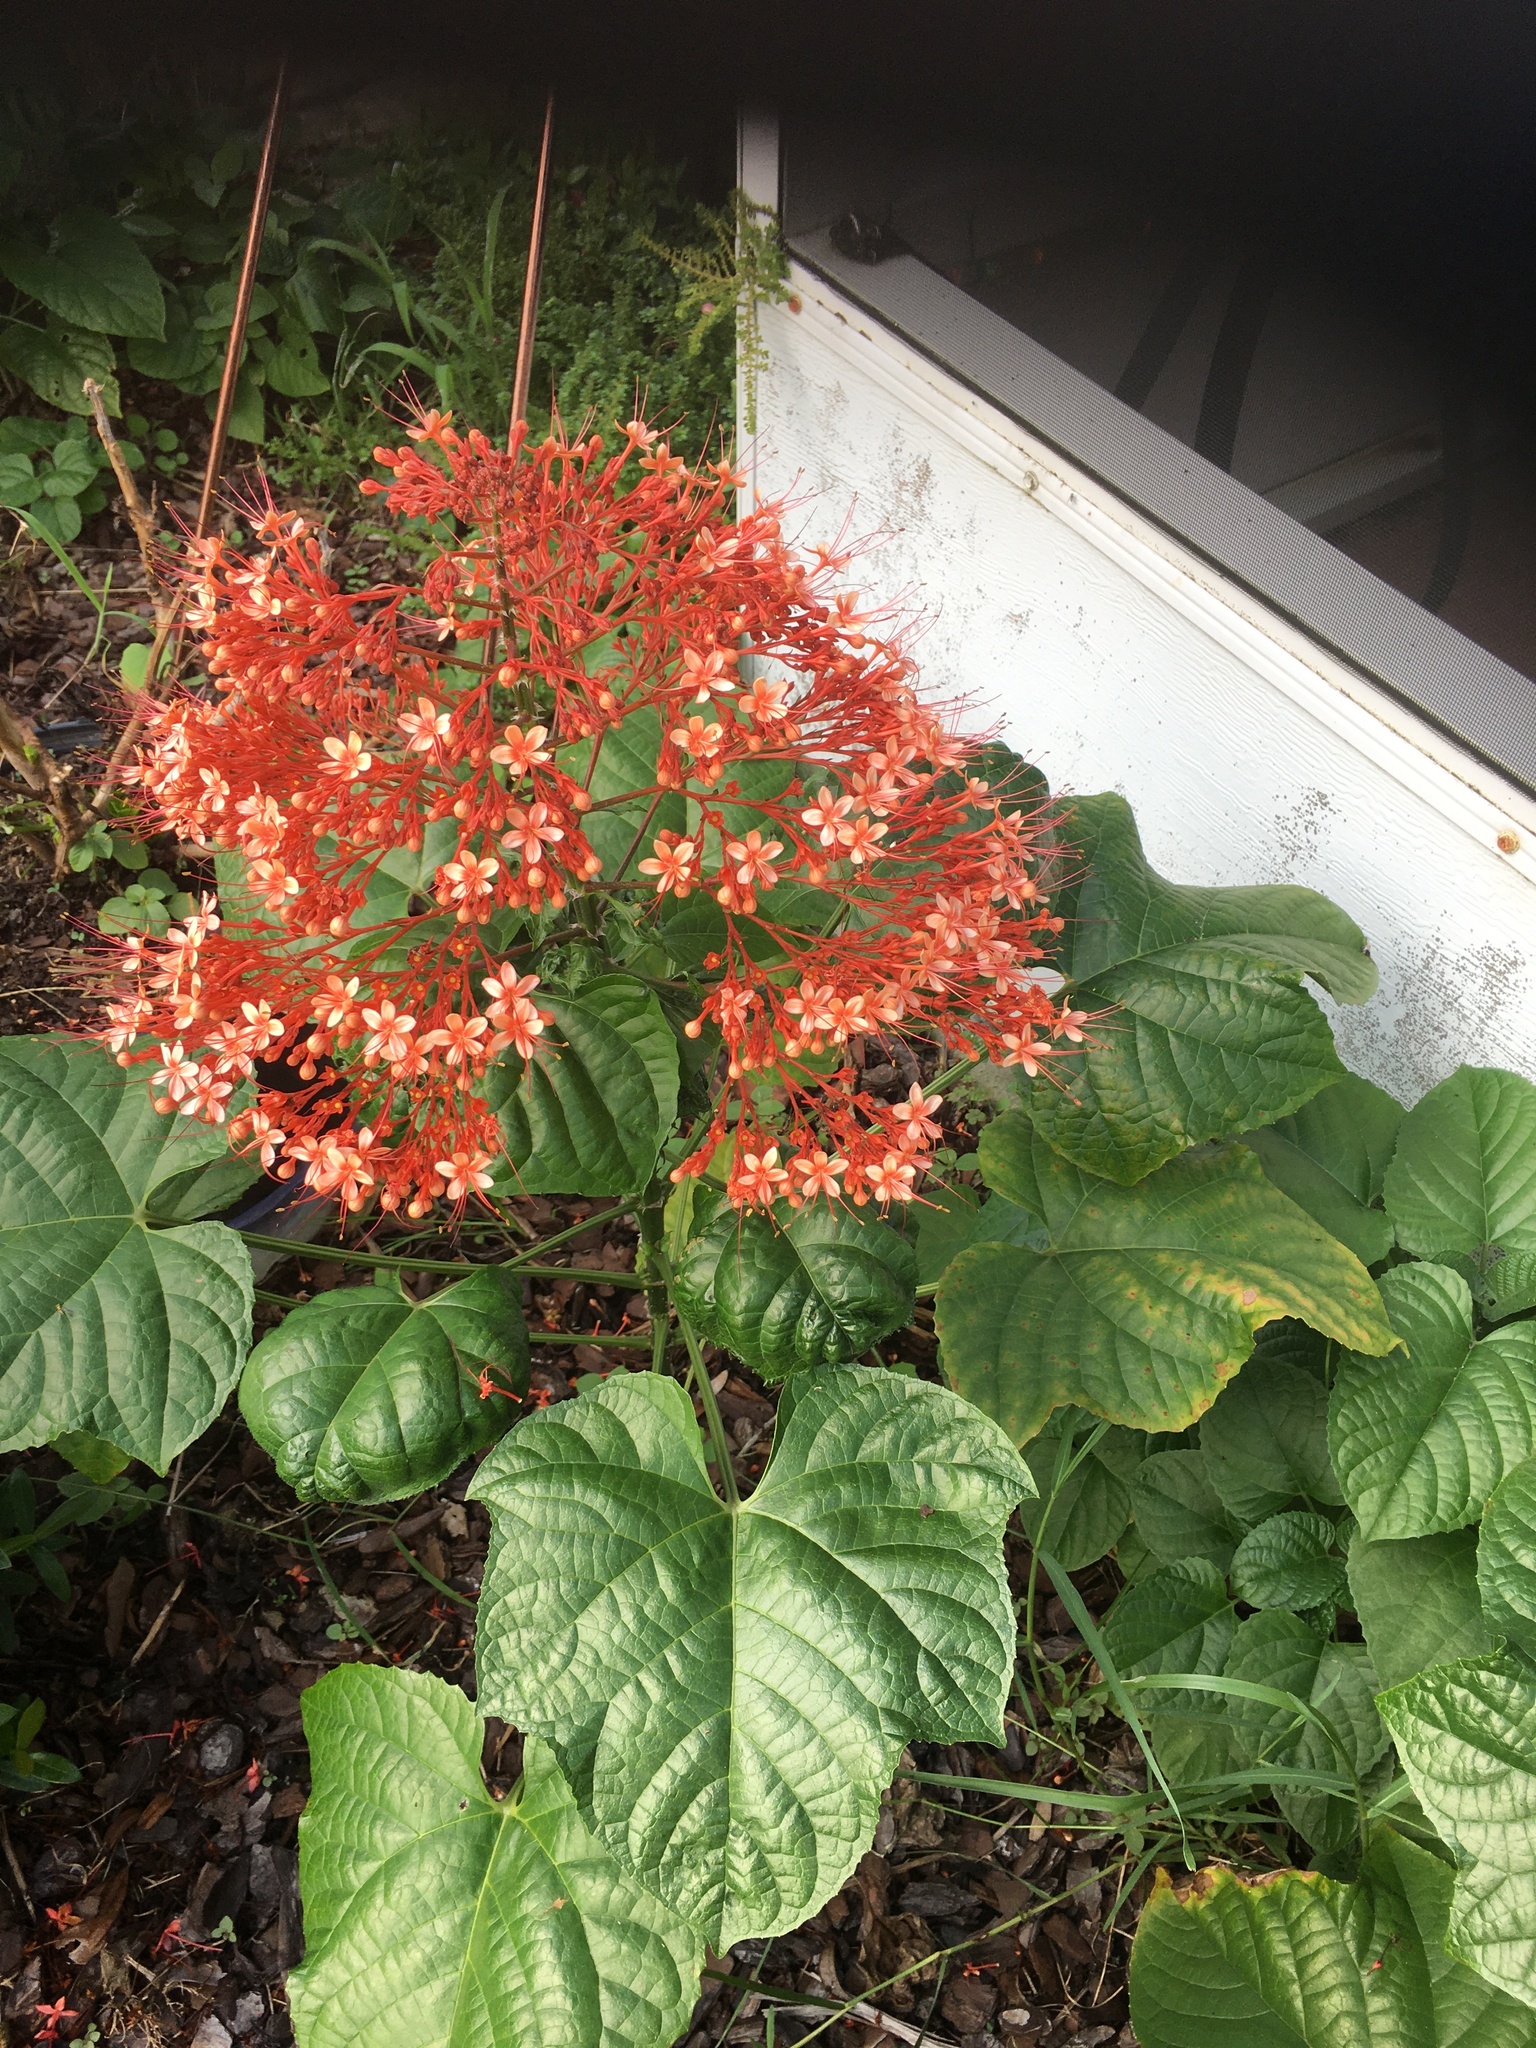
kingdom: Plantae
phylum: Tracheophyta
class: Magnoliopsida
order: Lamiales
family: Lamiaceae
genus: Clerodendrum
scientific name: Clerodendrum paniculatum
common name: Pagoda-flower
